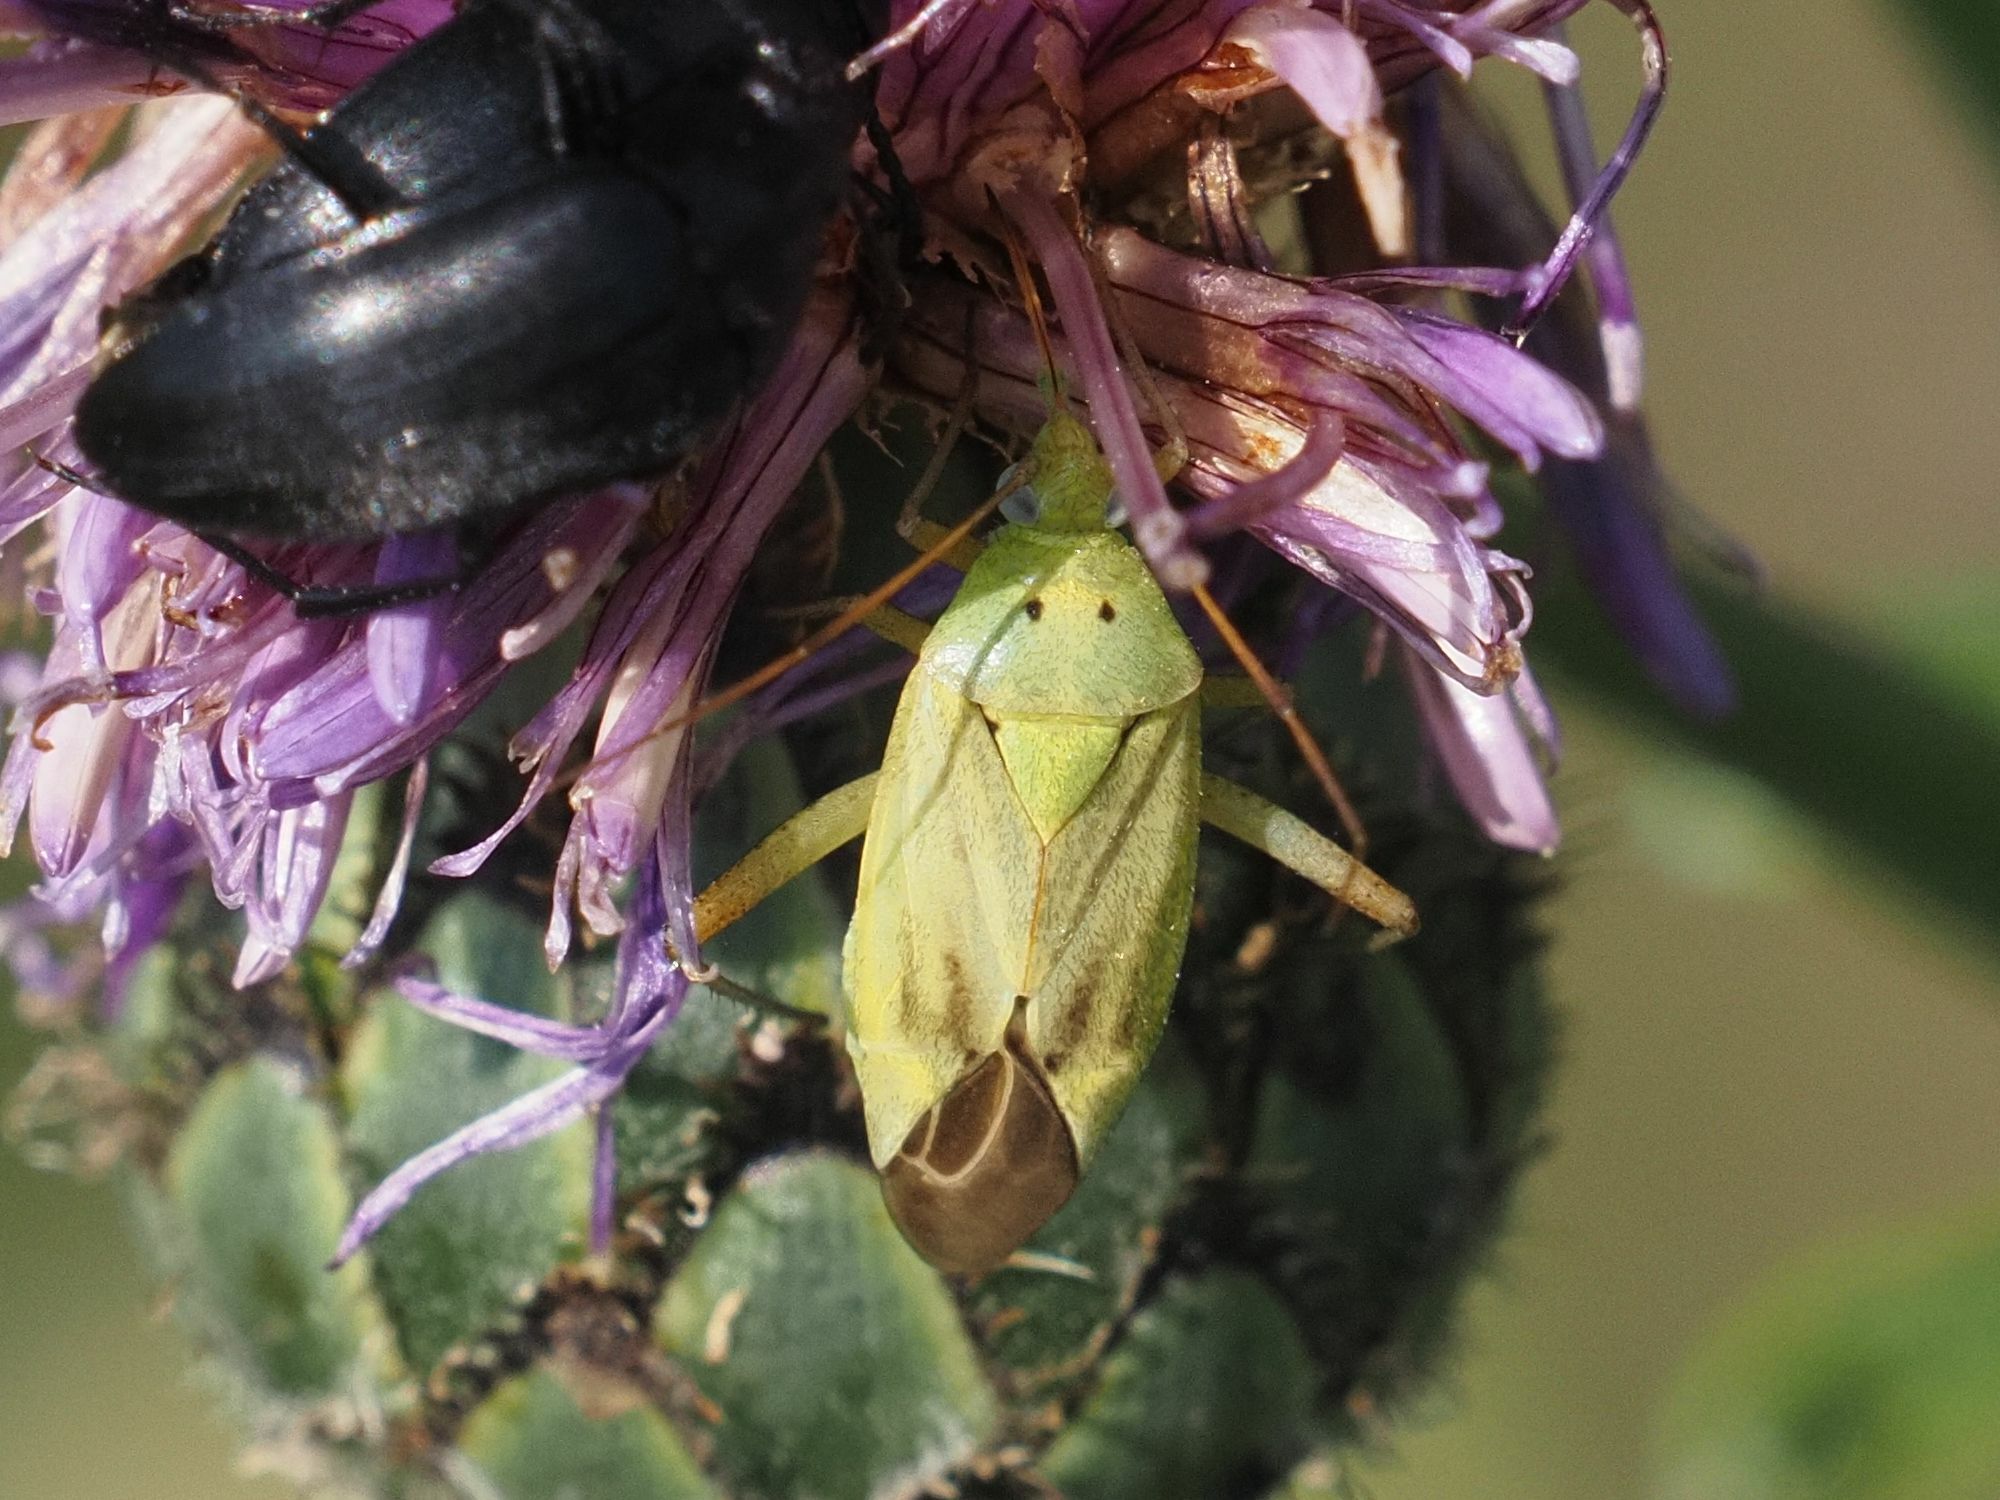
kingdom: Animalia
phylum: Arthropoda
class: Insecta
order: Hemiptera
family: Miridae
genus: Closterotomus
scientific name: Closterotomus norvegicus
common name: Plant bug
